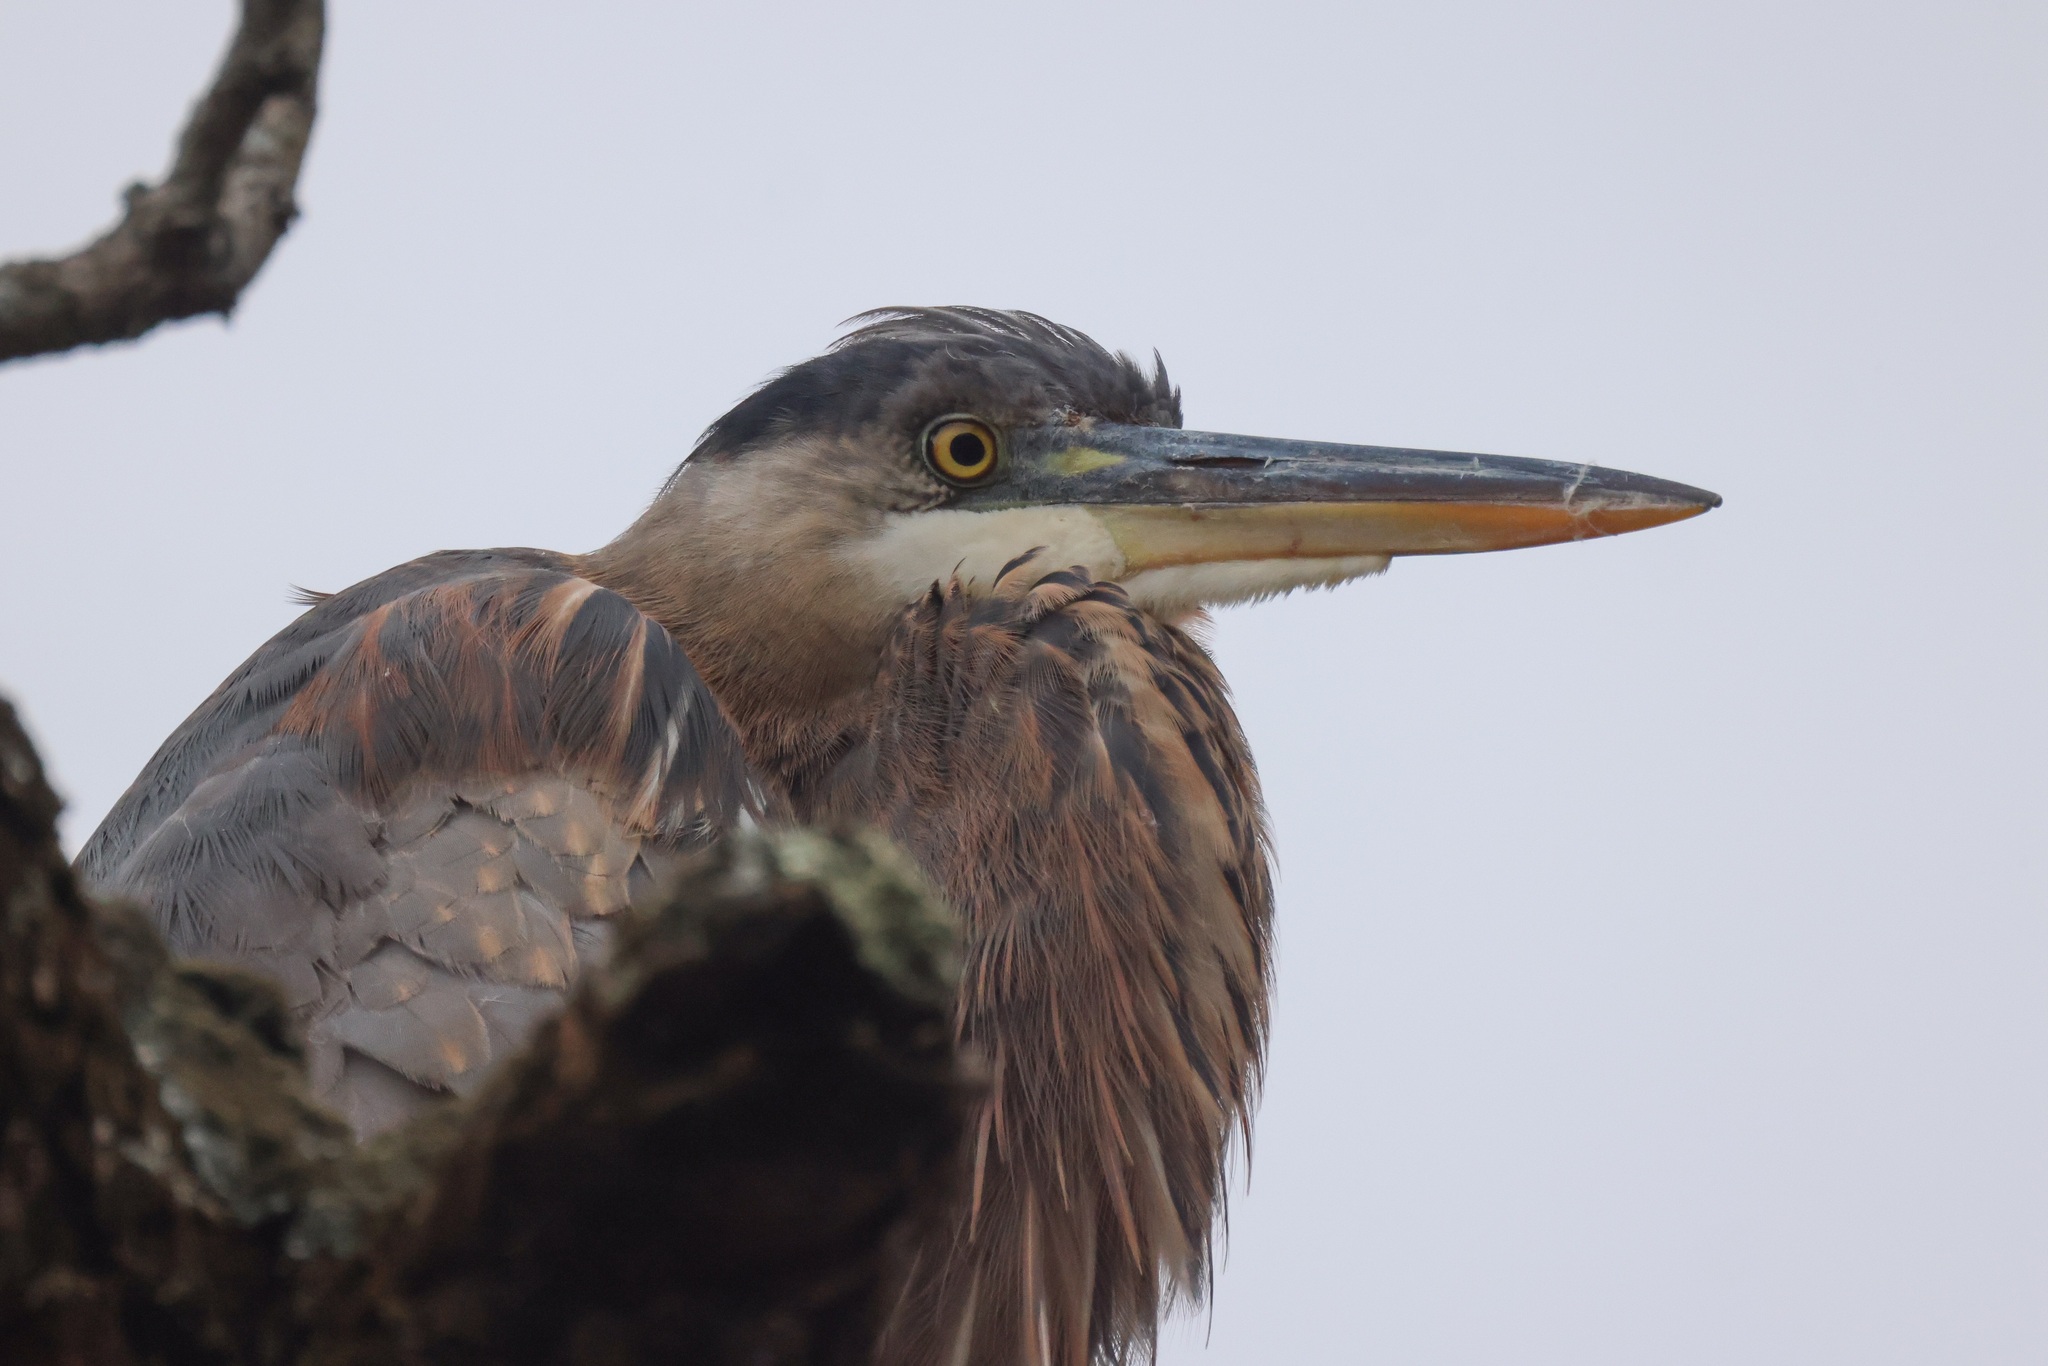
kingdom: Animalia
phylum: Chordata
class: Aves
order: Pelecaniformes
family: Ardeidae
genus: Ardea
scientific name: Ardea herodias
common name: Great blue heron
